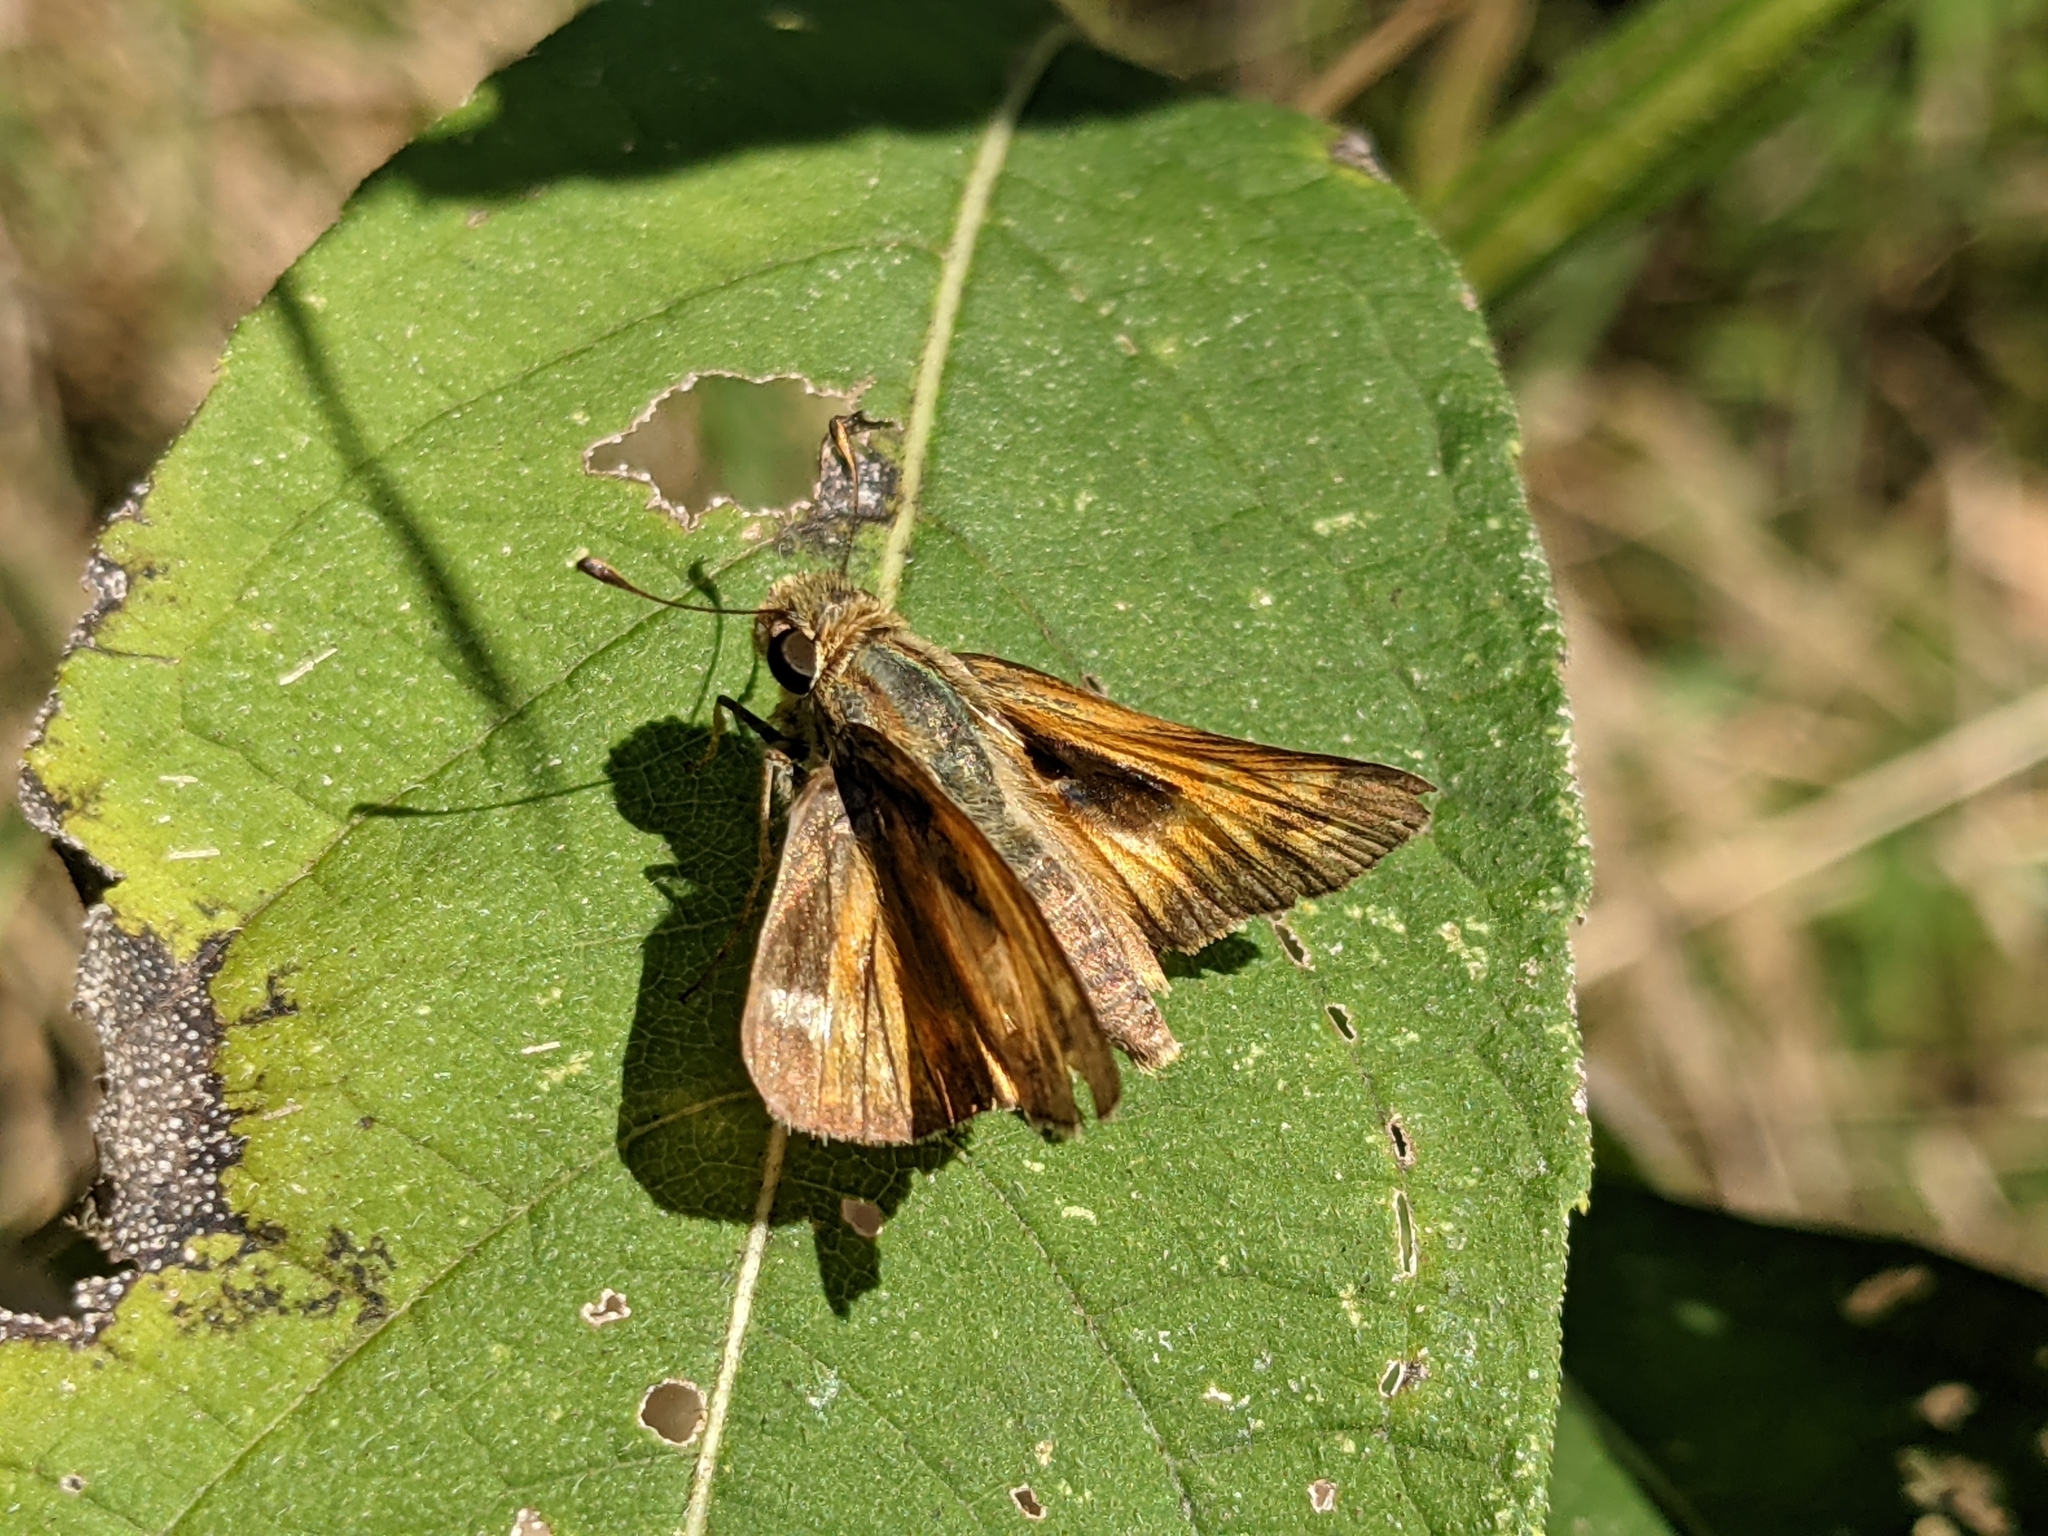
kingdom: Animalia
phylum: Arthropoda
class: Insecta
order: Lepidoptera
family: Hesperiidae
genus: Atalopedes
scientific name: Atalopedes
